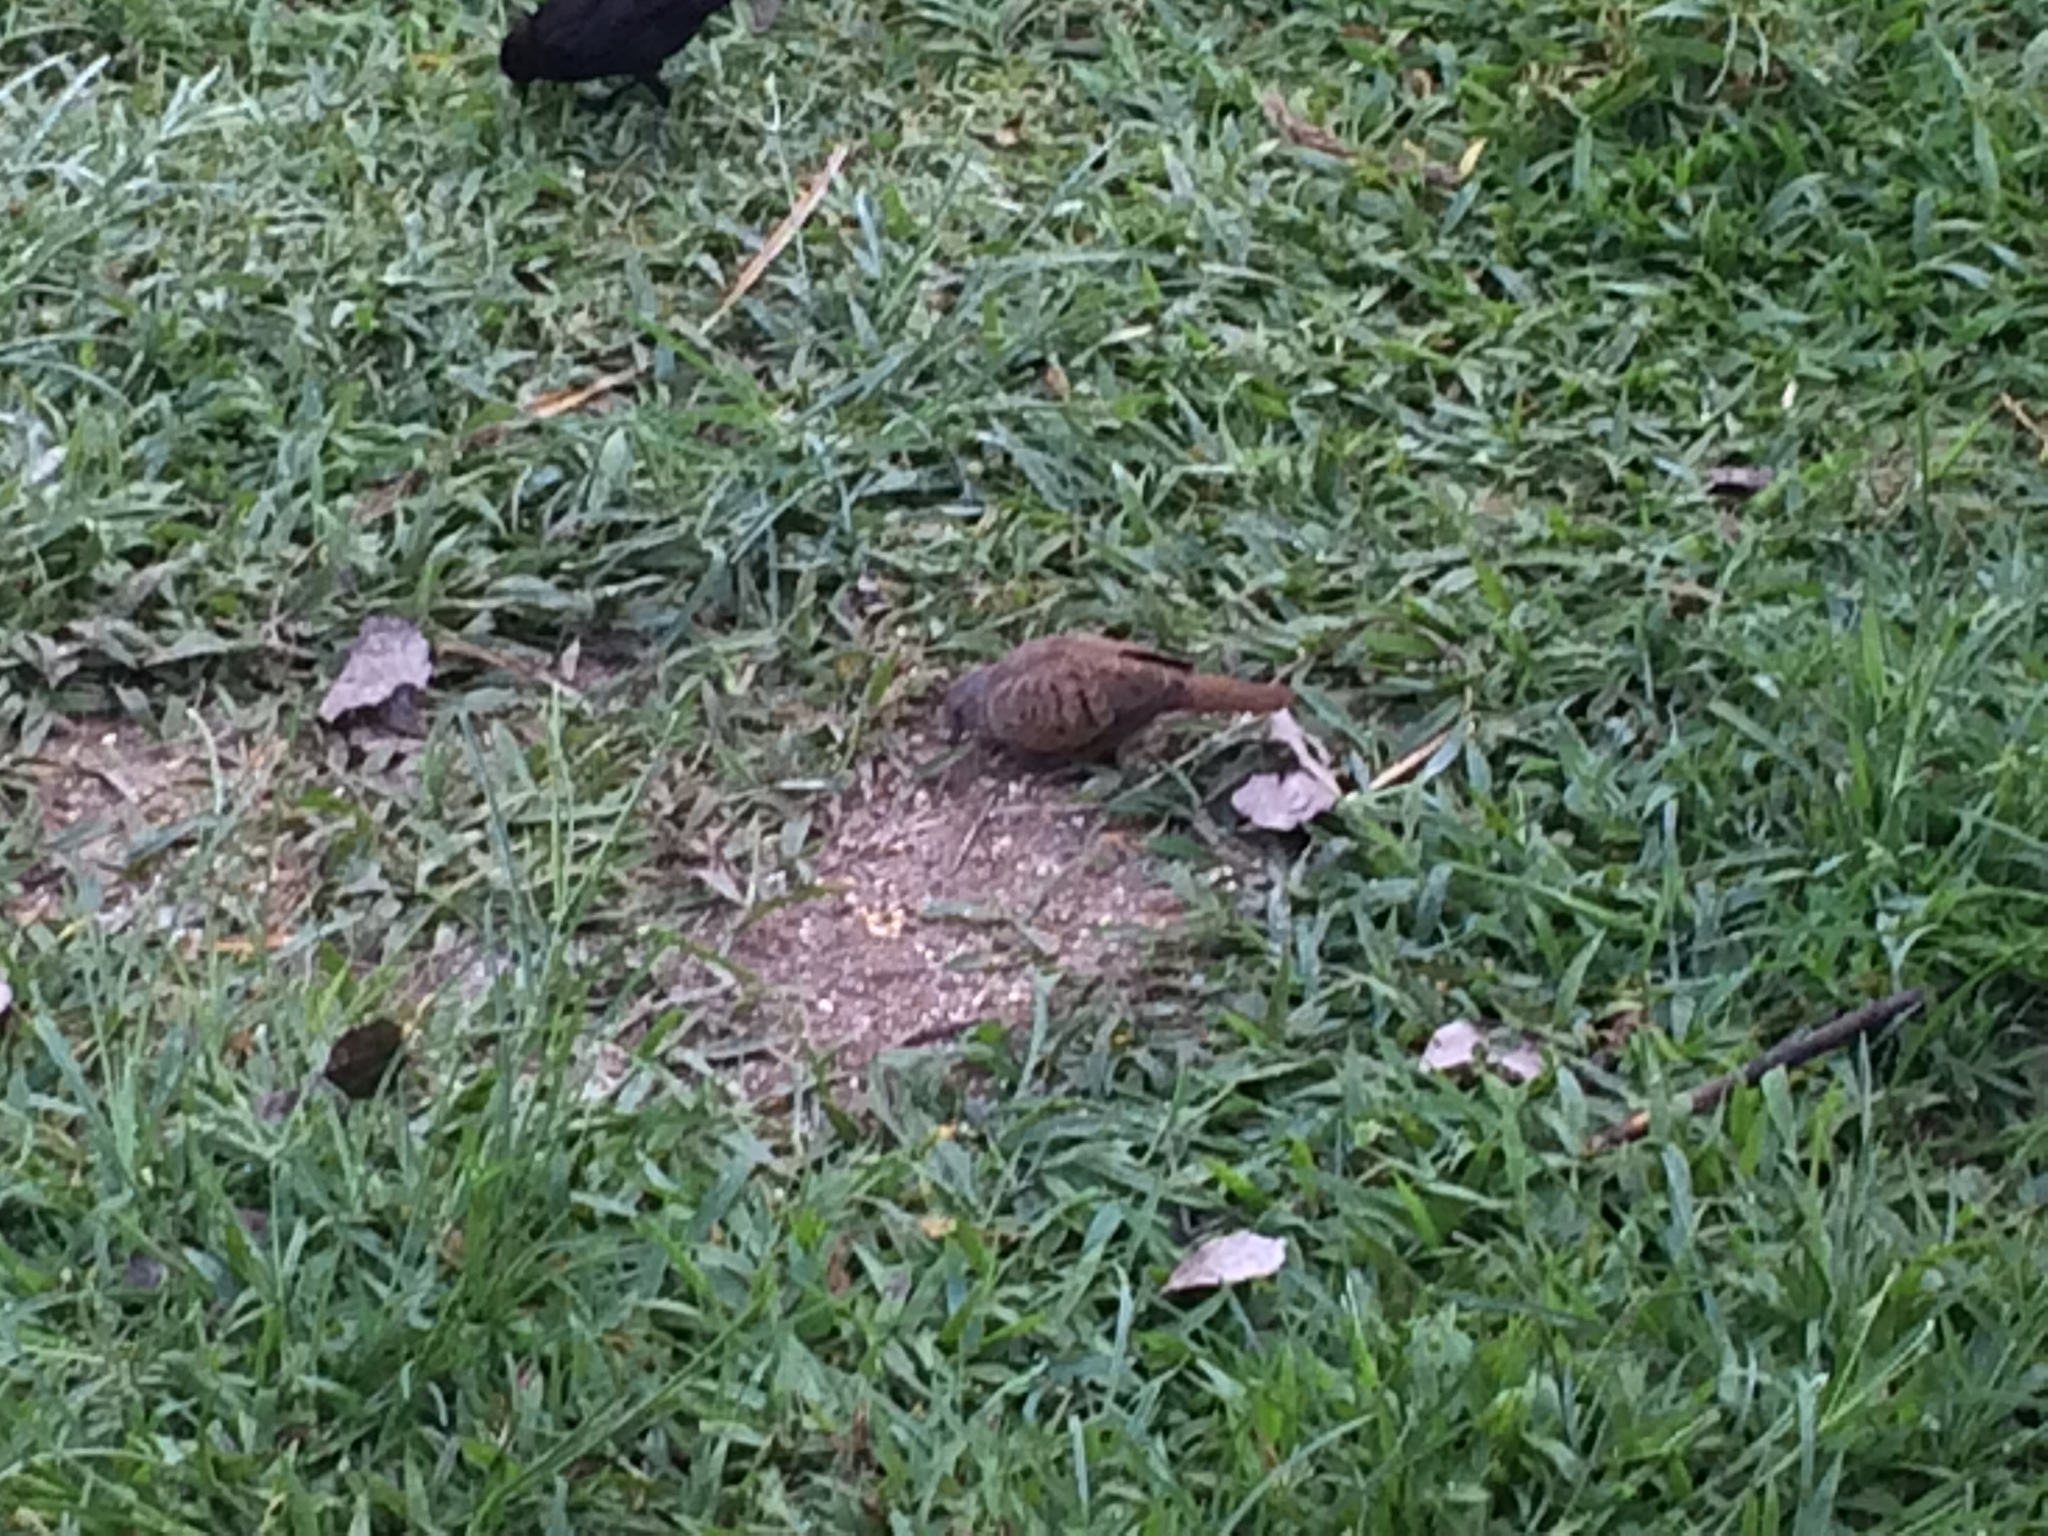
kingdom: Animalia
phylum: Chordata
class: Aves
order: Columbiformes
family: Columbidae
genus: Columbina
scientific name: Columbina talpacoti
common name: Ruddy ground dove
